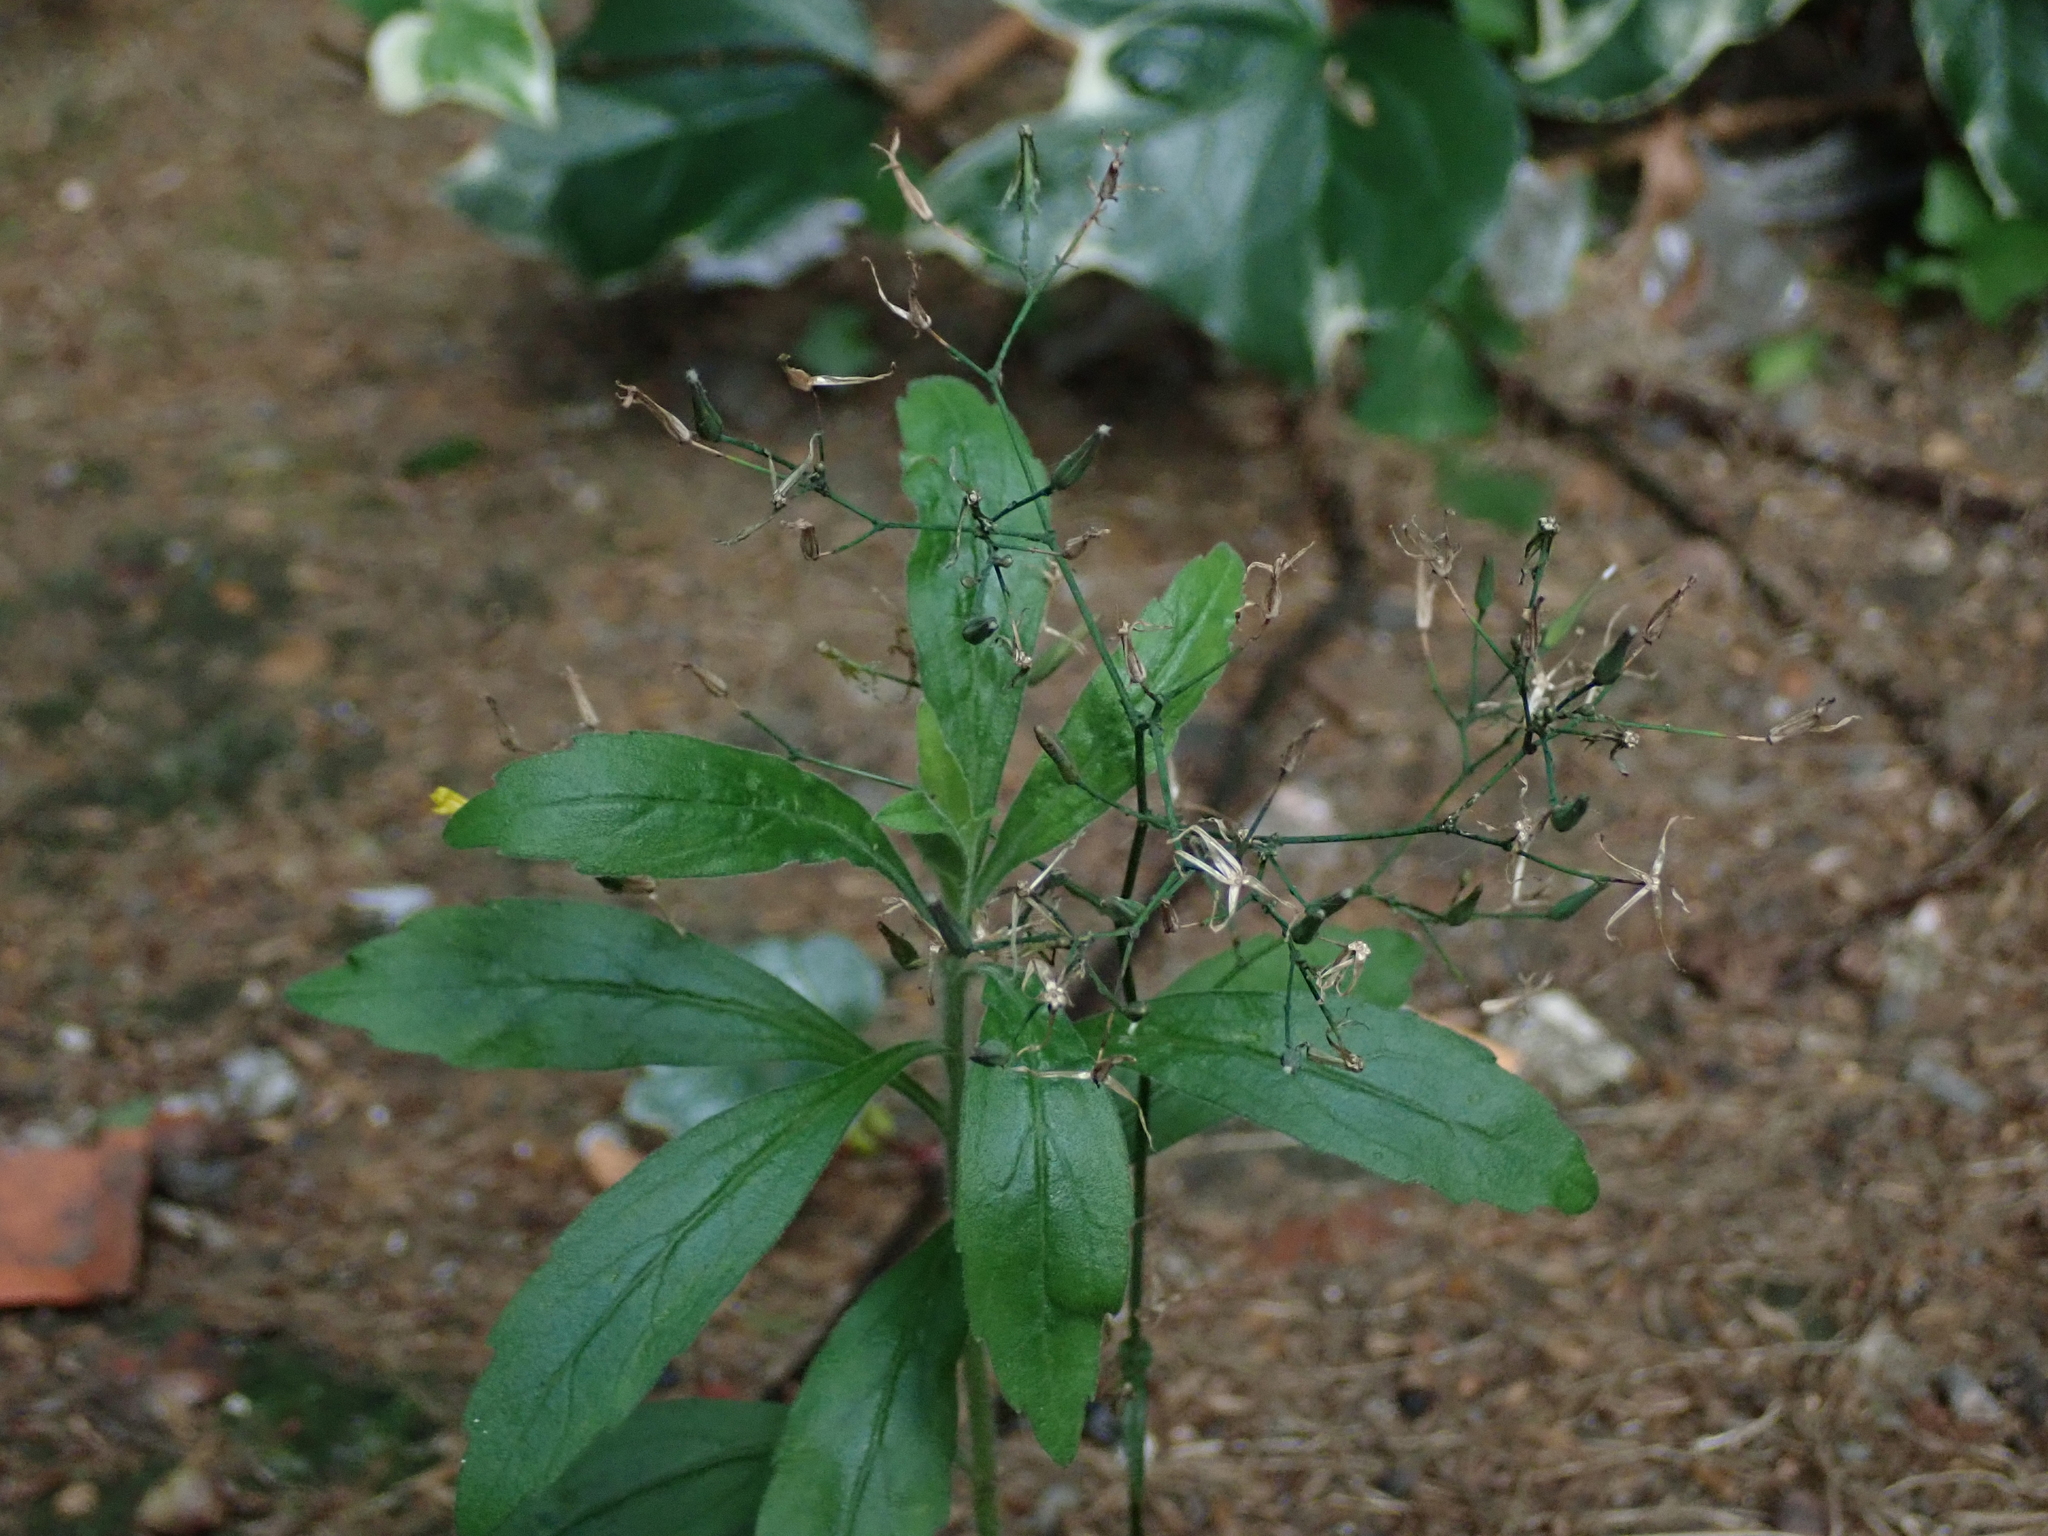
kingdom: Plantae
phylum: Tracheophyta
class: Magnoliopsida
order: Asterales
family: Asteraceae
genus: Mycelis
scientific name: Mycelis muralis
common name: Wall lettuce
